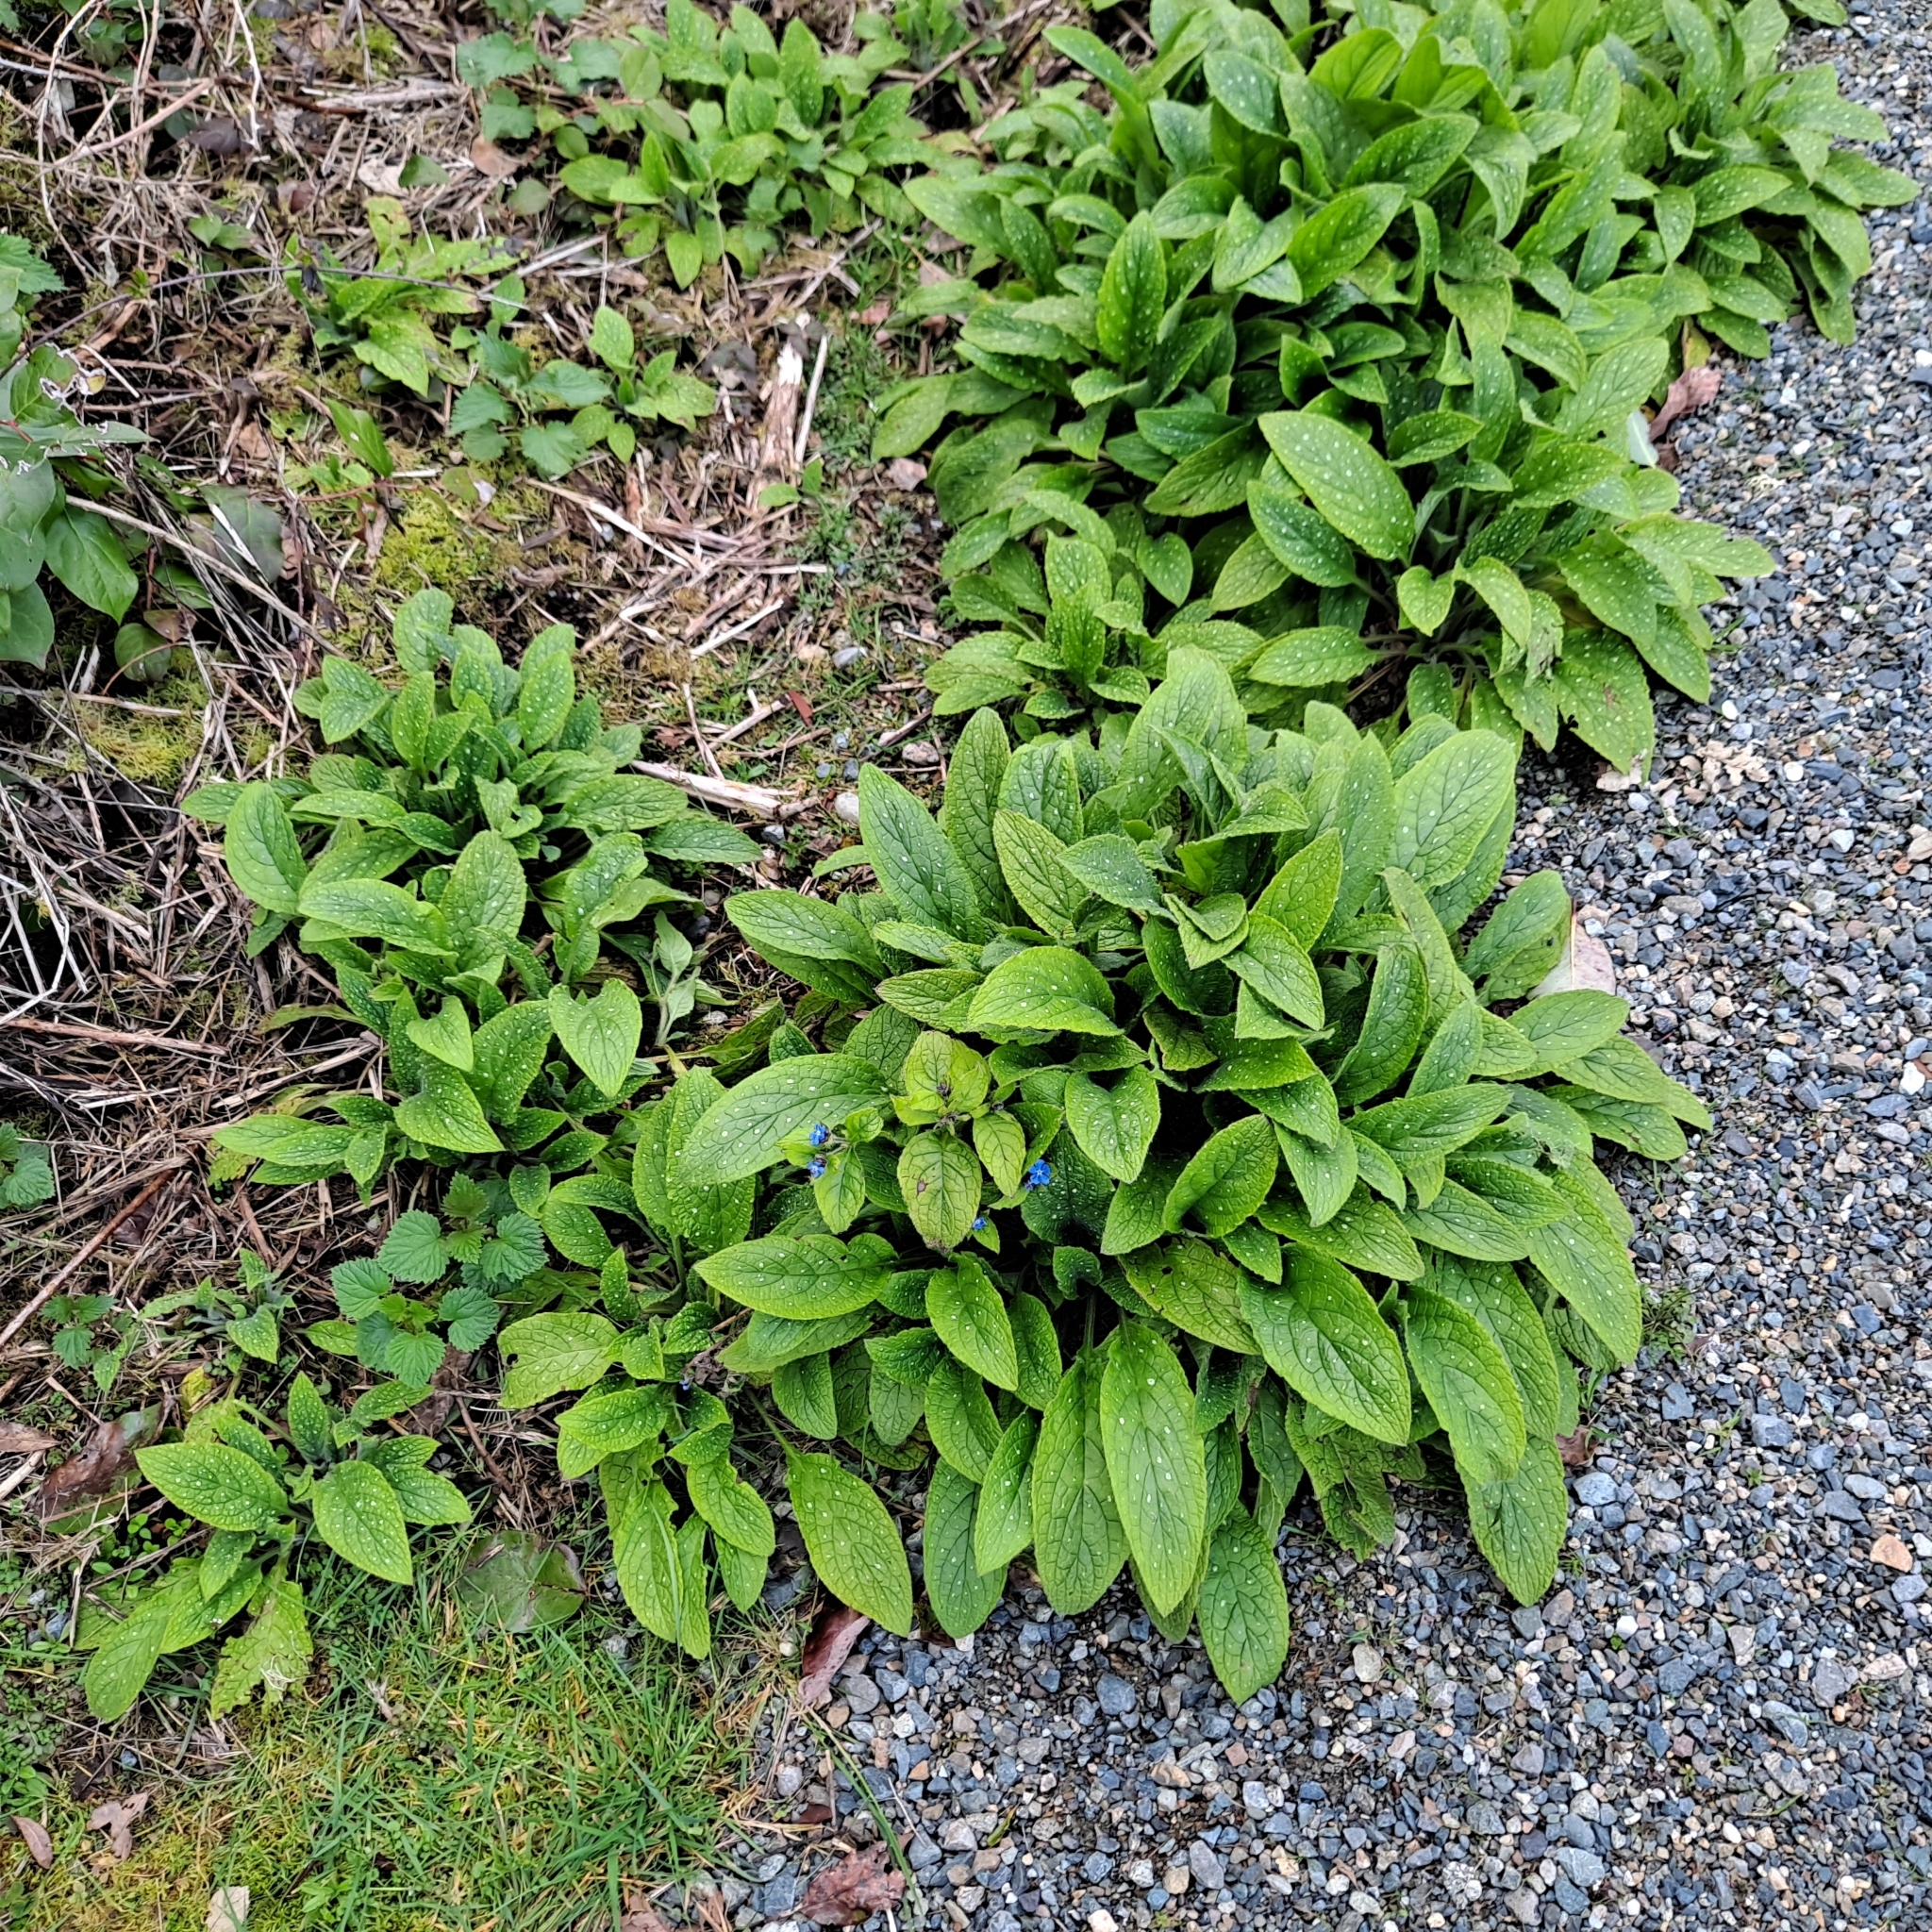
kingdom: Plantae
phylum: Tracheophyta
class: Magnoliopsida
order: Boraginales
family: Boraginaceae
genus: Pentaglottis
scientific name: Pentaglottis sempervirens
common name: Green alkanet
